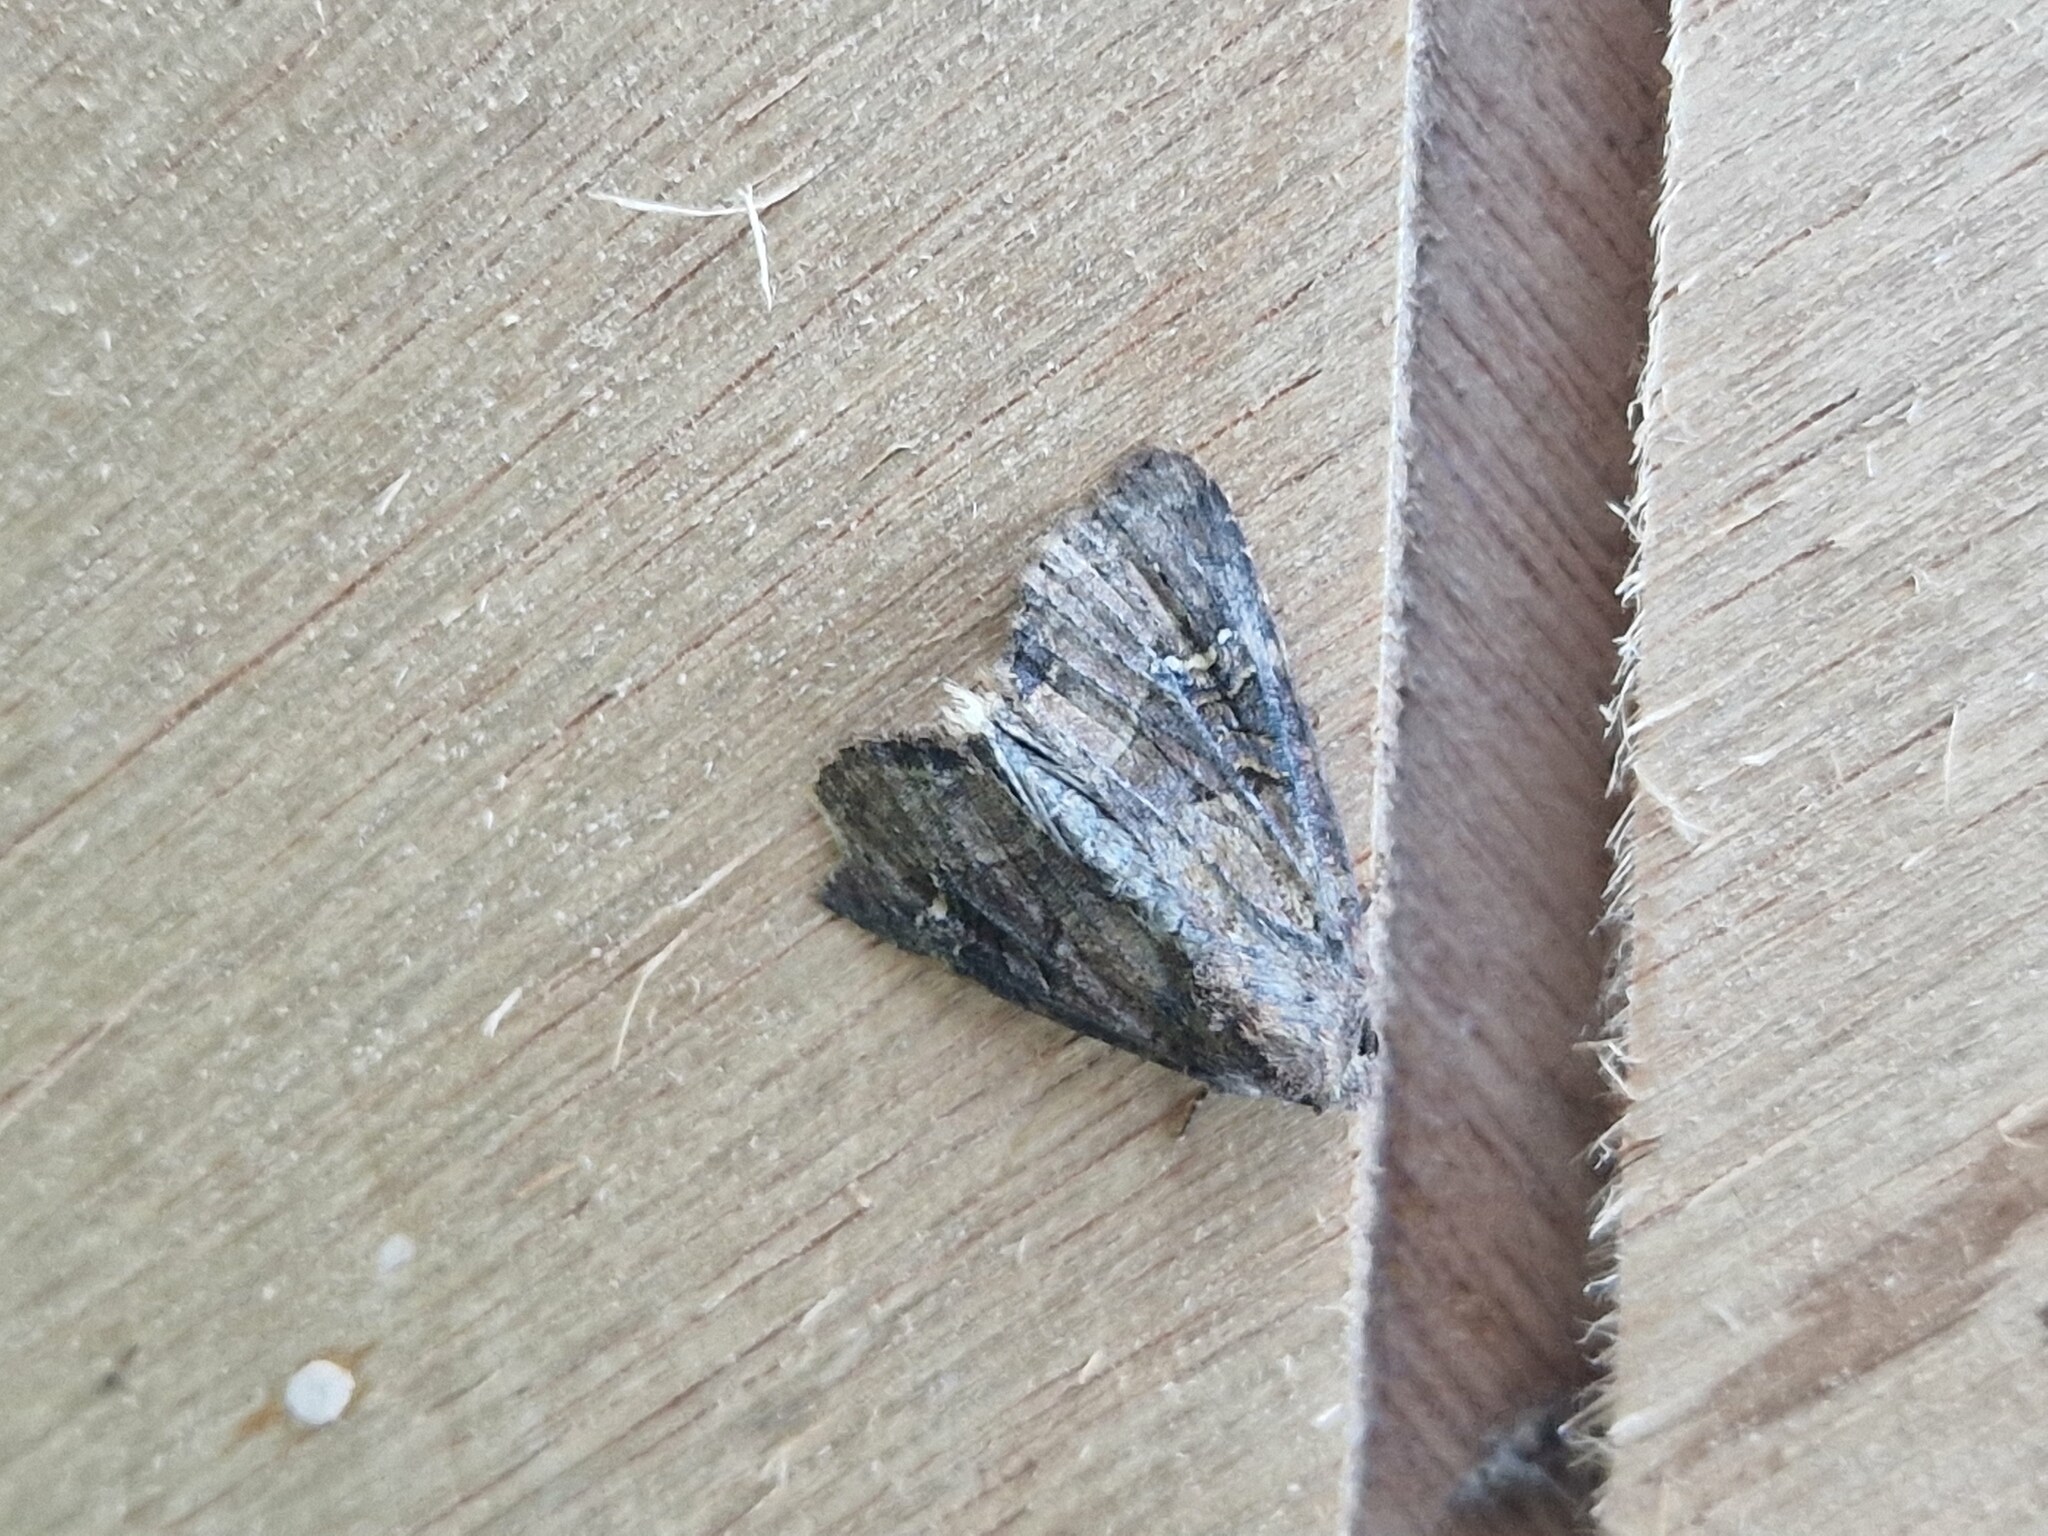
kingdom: Animalia
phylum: Arthropoda
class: Insecta
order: Lepidoptera
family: Noctuidae
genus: Mesapamea
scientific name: Mesapamea
